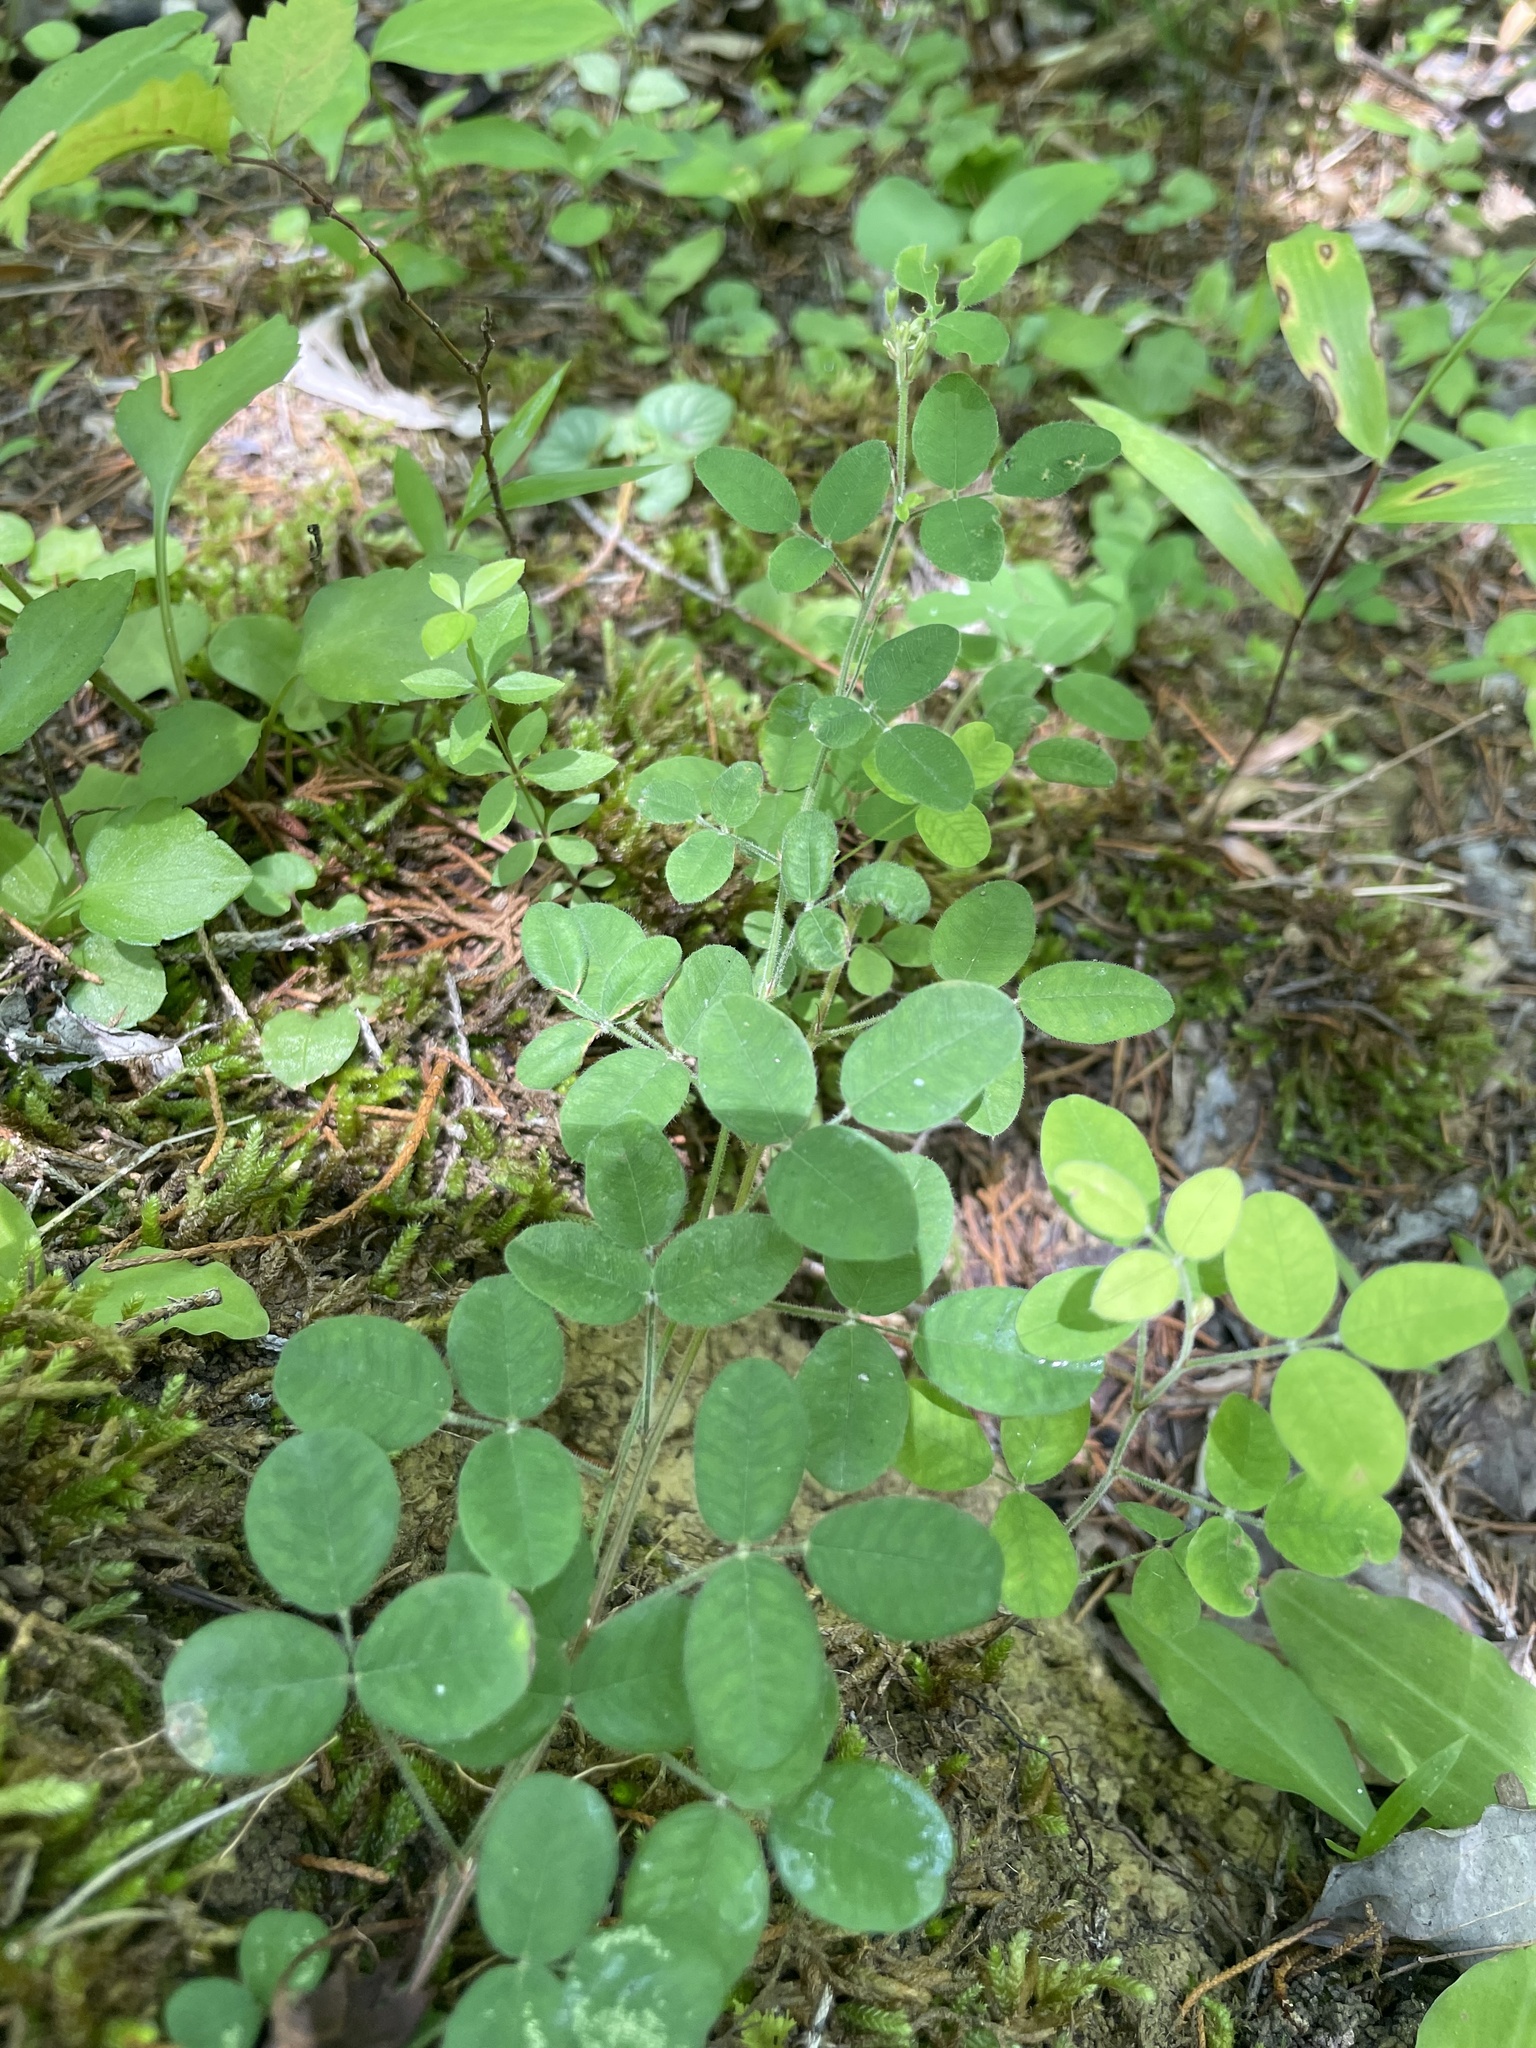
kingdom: Plantae
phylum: Tracheophyta
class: Magnoliopsida
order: Fabales
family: Fabaceae
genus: Lespedeza
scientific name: Lespedeza procumbens
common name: Downy trailing bush-clover
